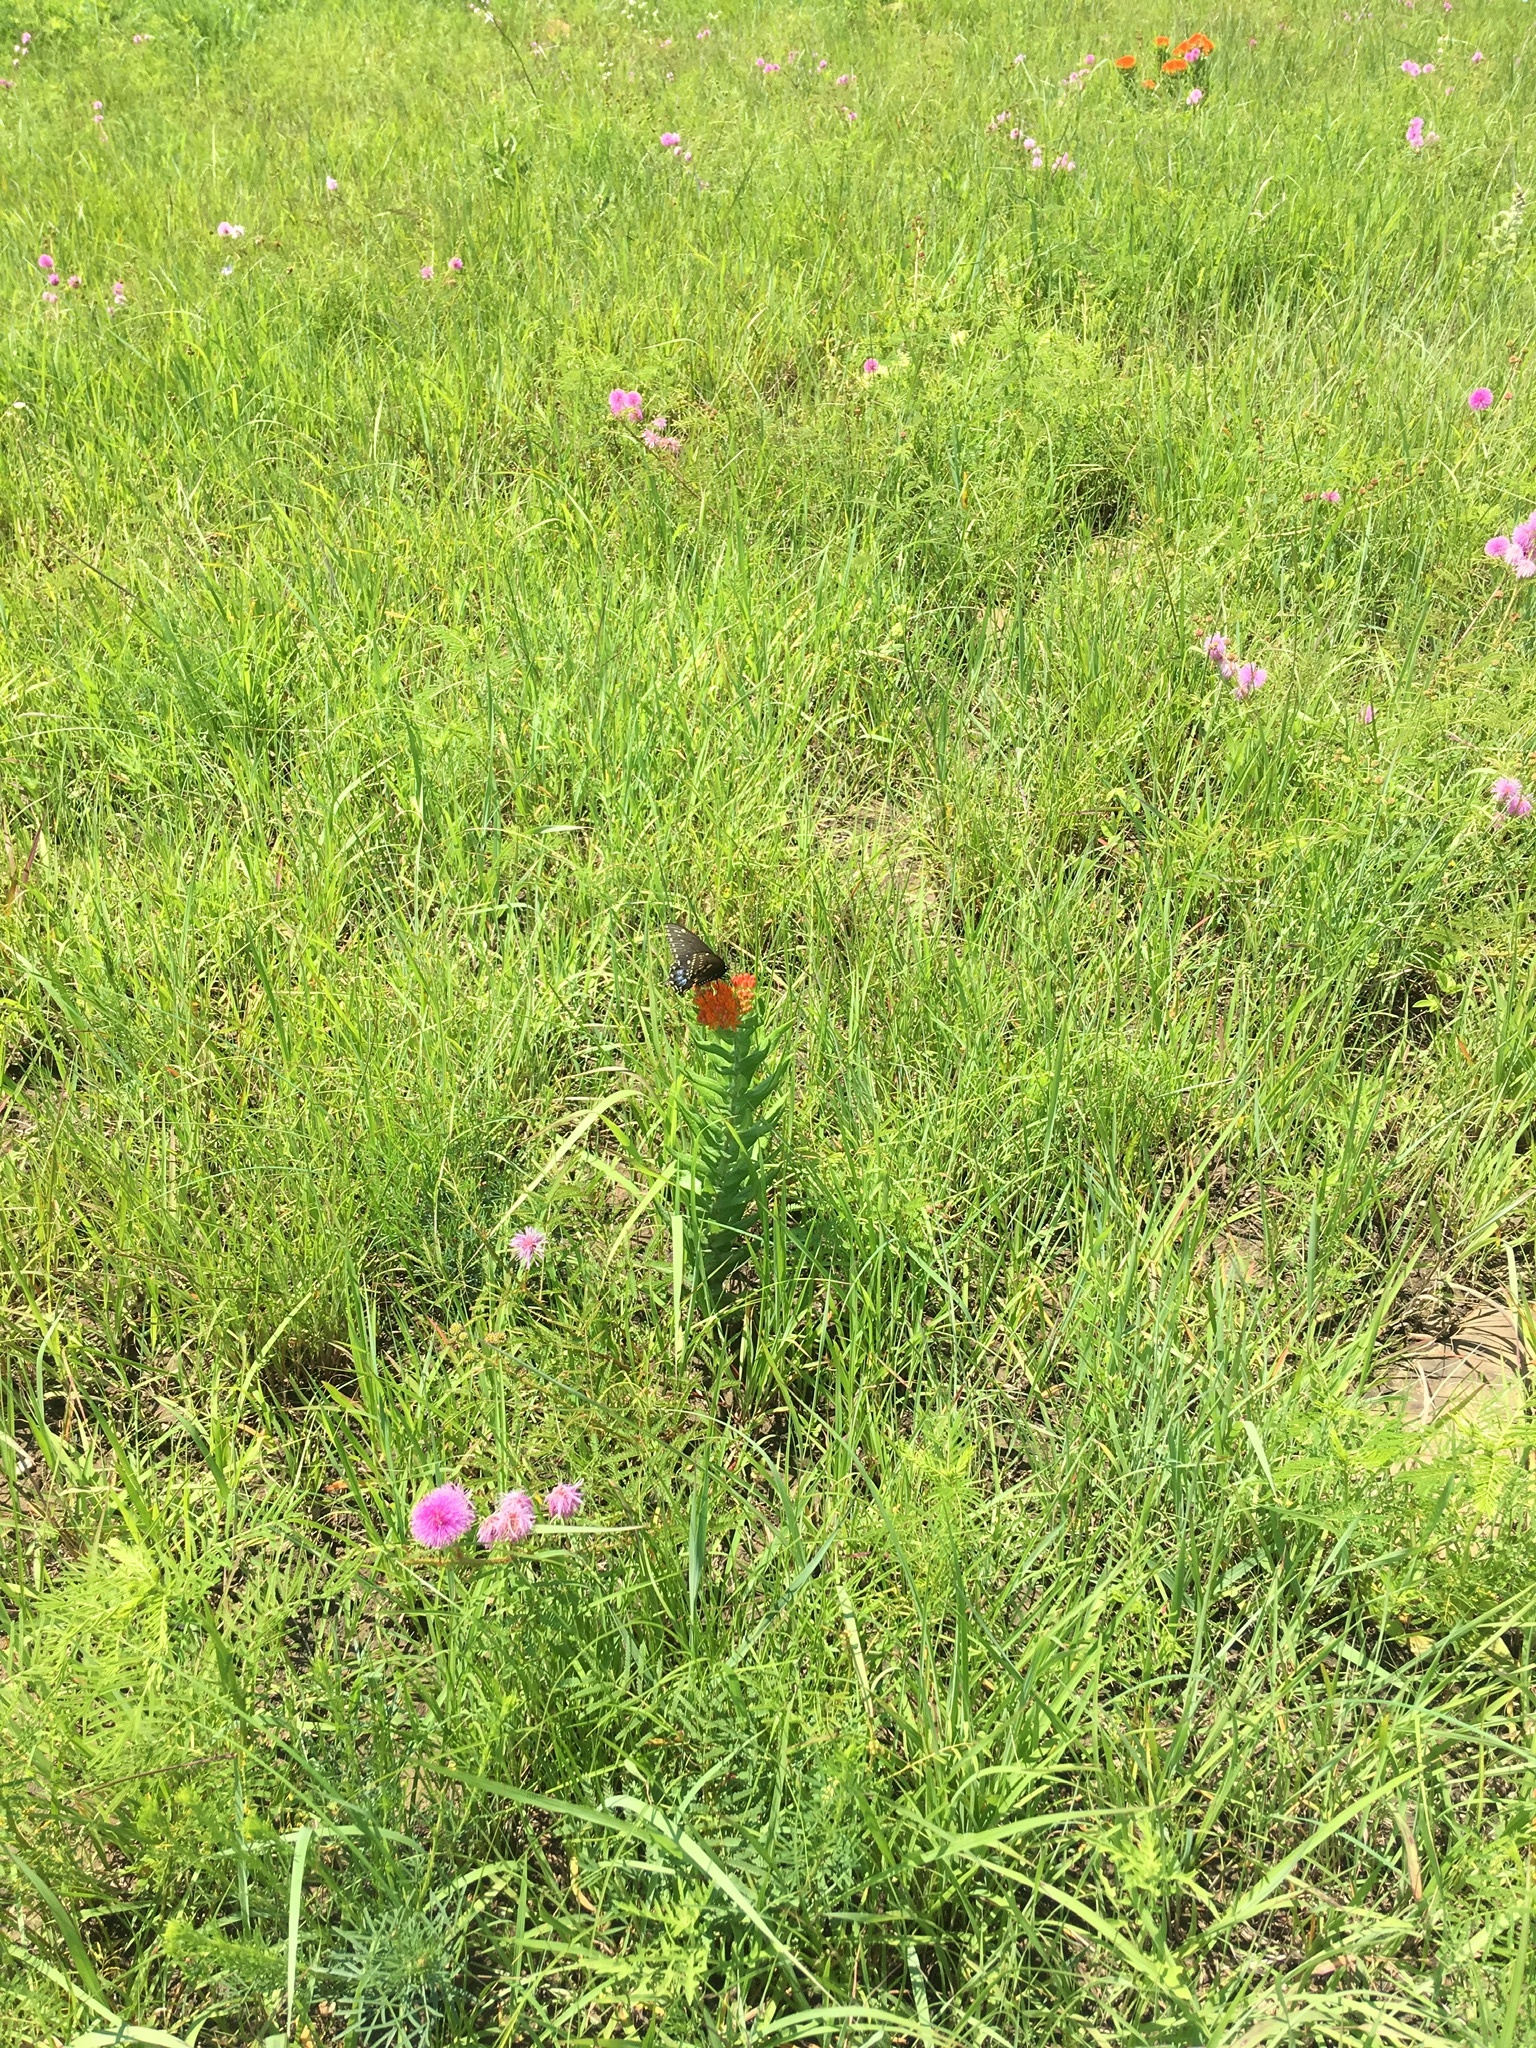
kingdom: Animalia
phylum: Arthropoda
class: Insecta
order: Lepidoptera
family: Papilionidae
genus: Papilio
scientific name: Papilio polyxenes
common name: Black swallowtail
